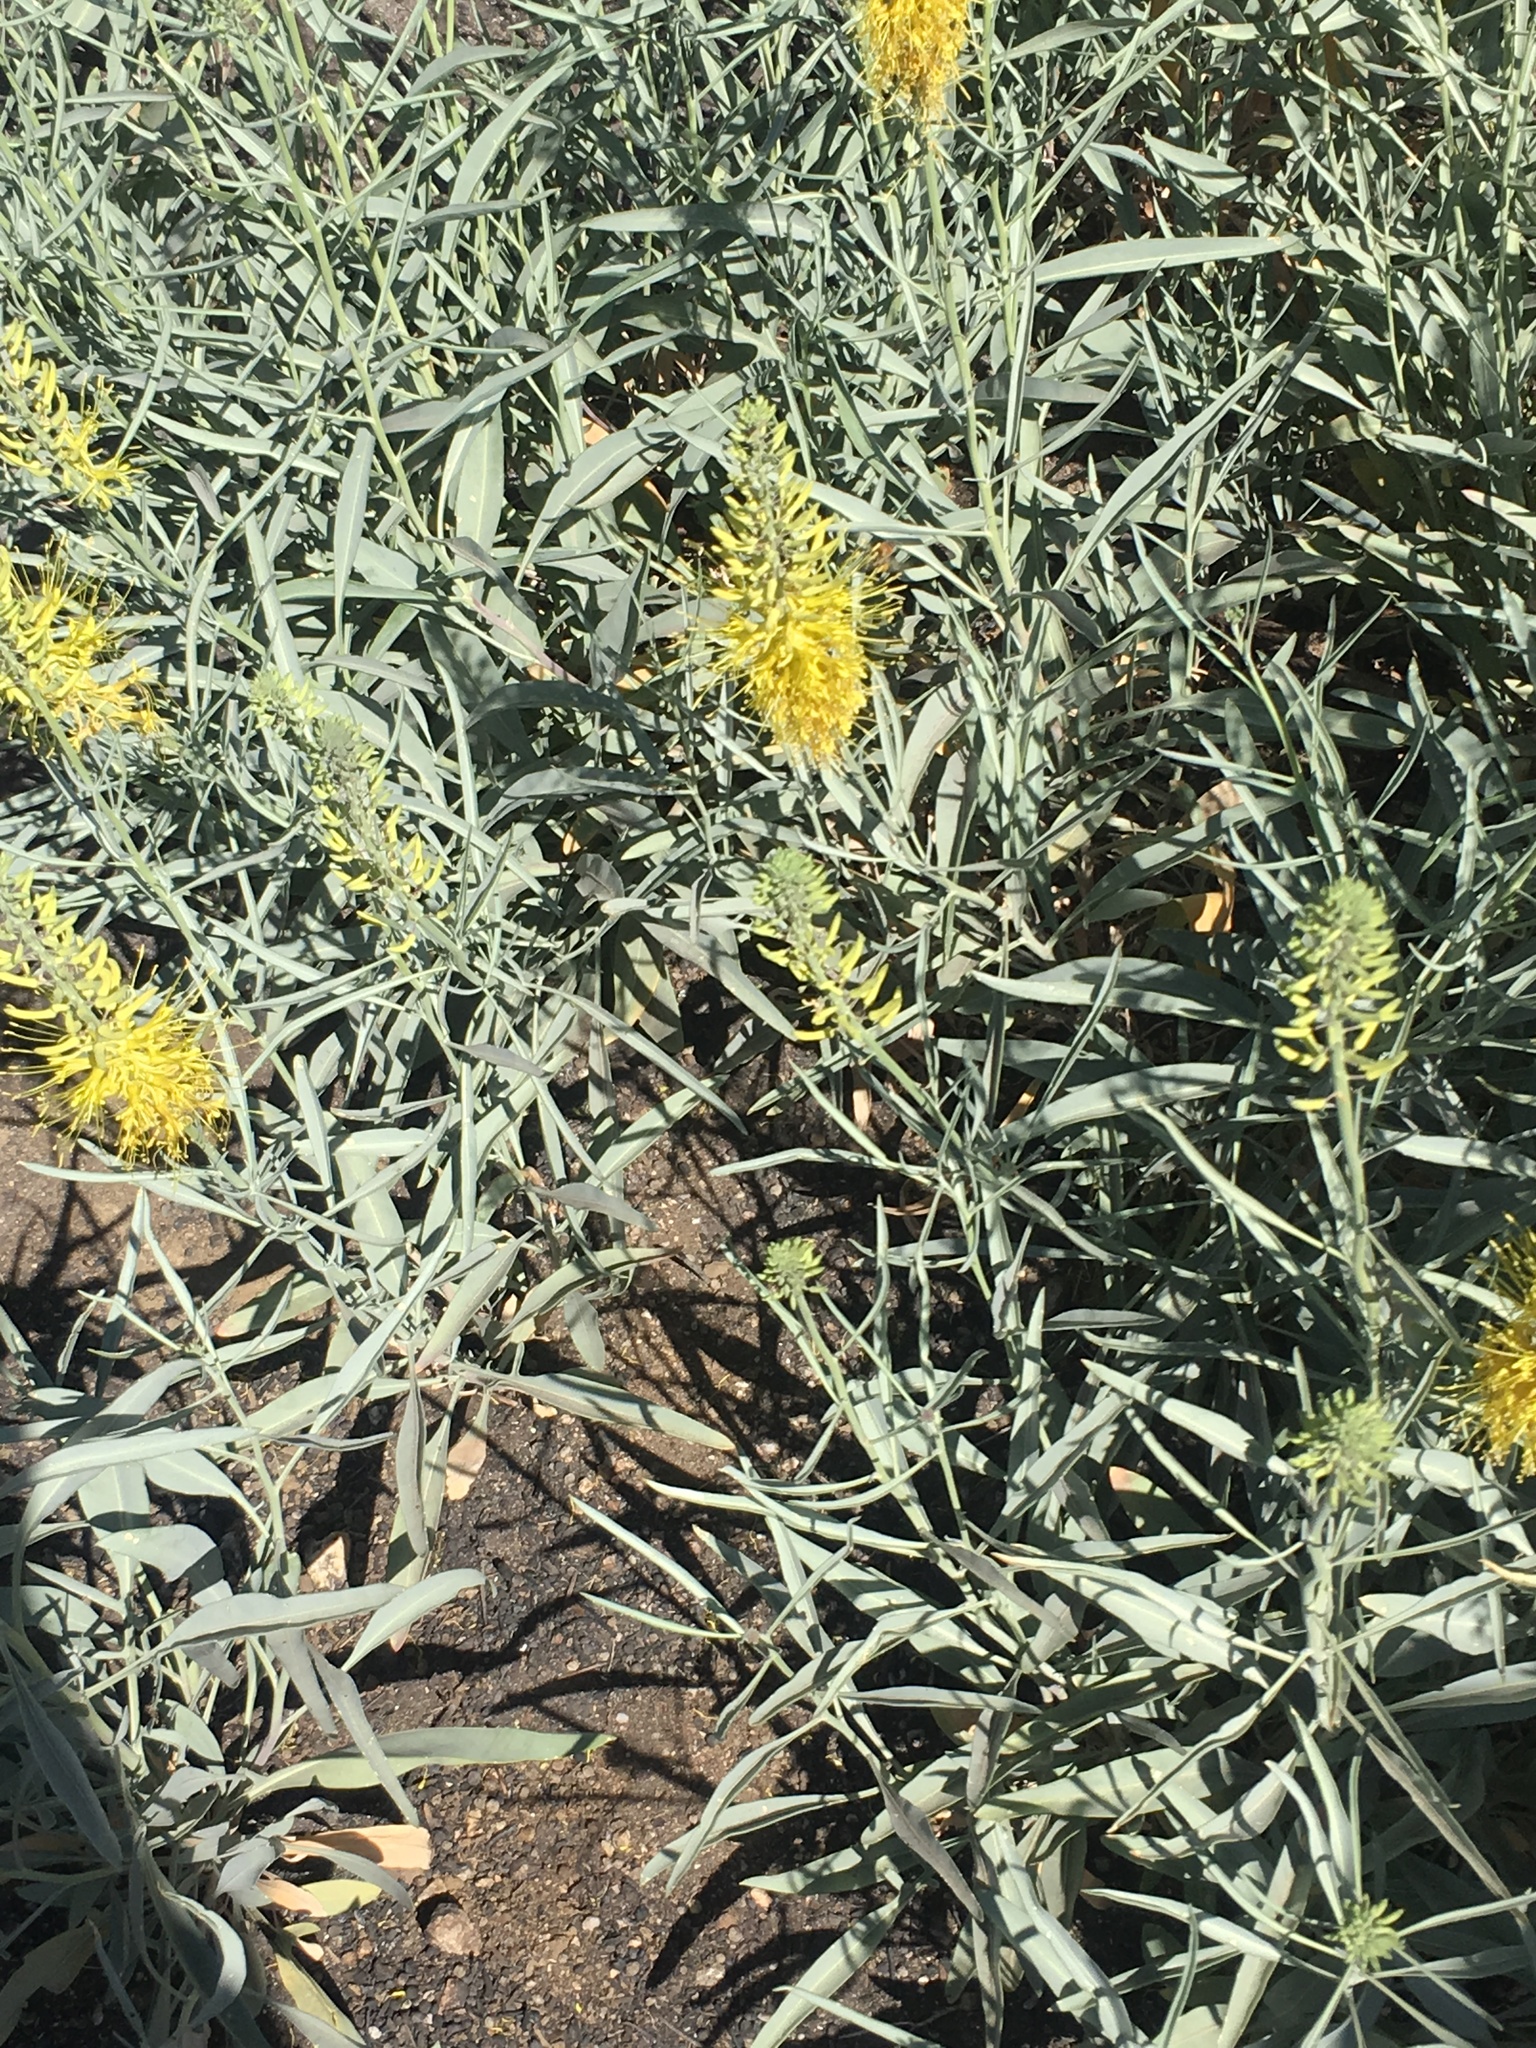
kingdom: Plantae
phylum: Tracheophyta
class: Magnoliopsida
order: Brassicales
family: Brassicaceae
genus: Stanleya
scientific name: Stanleya pinnata
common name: Prince's-plume
